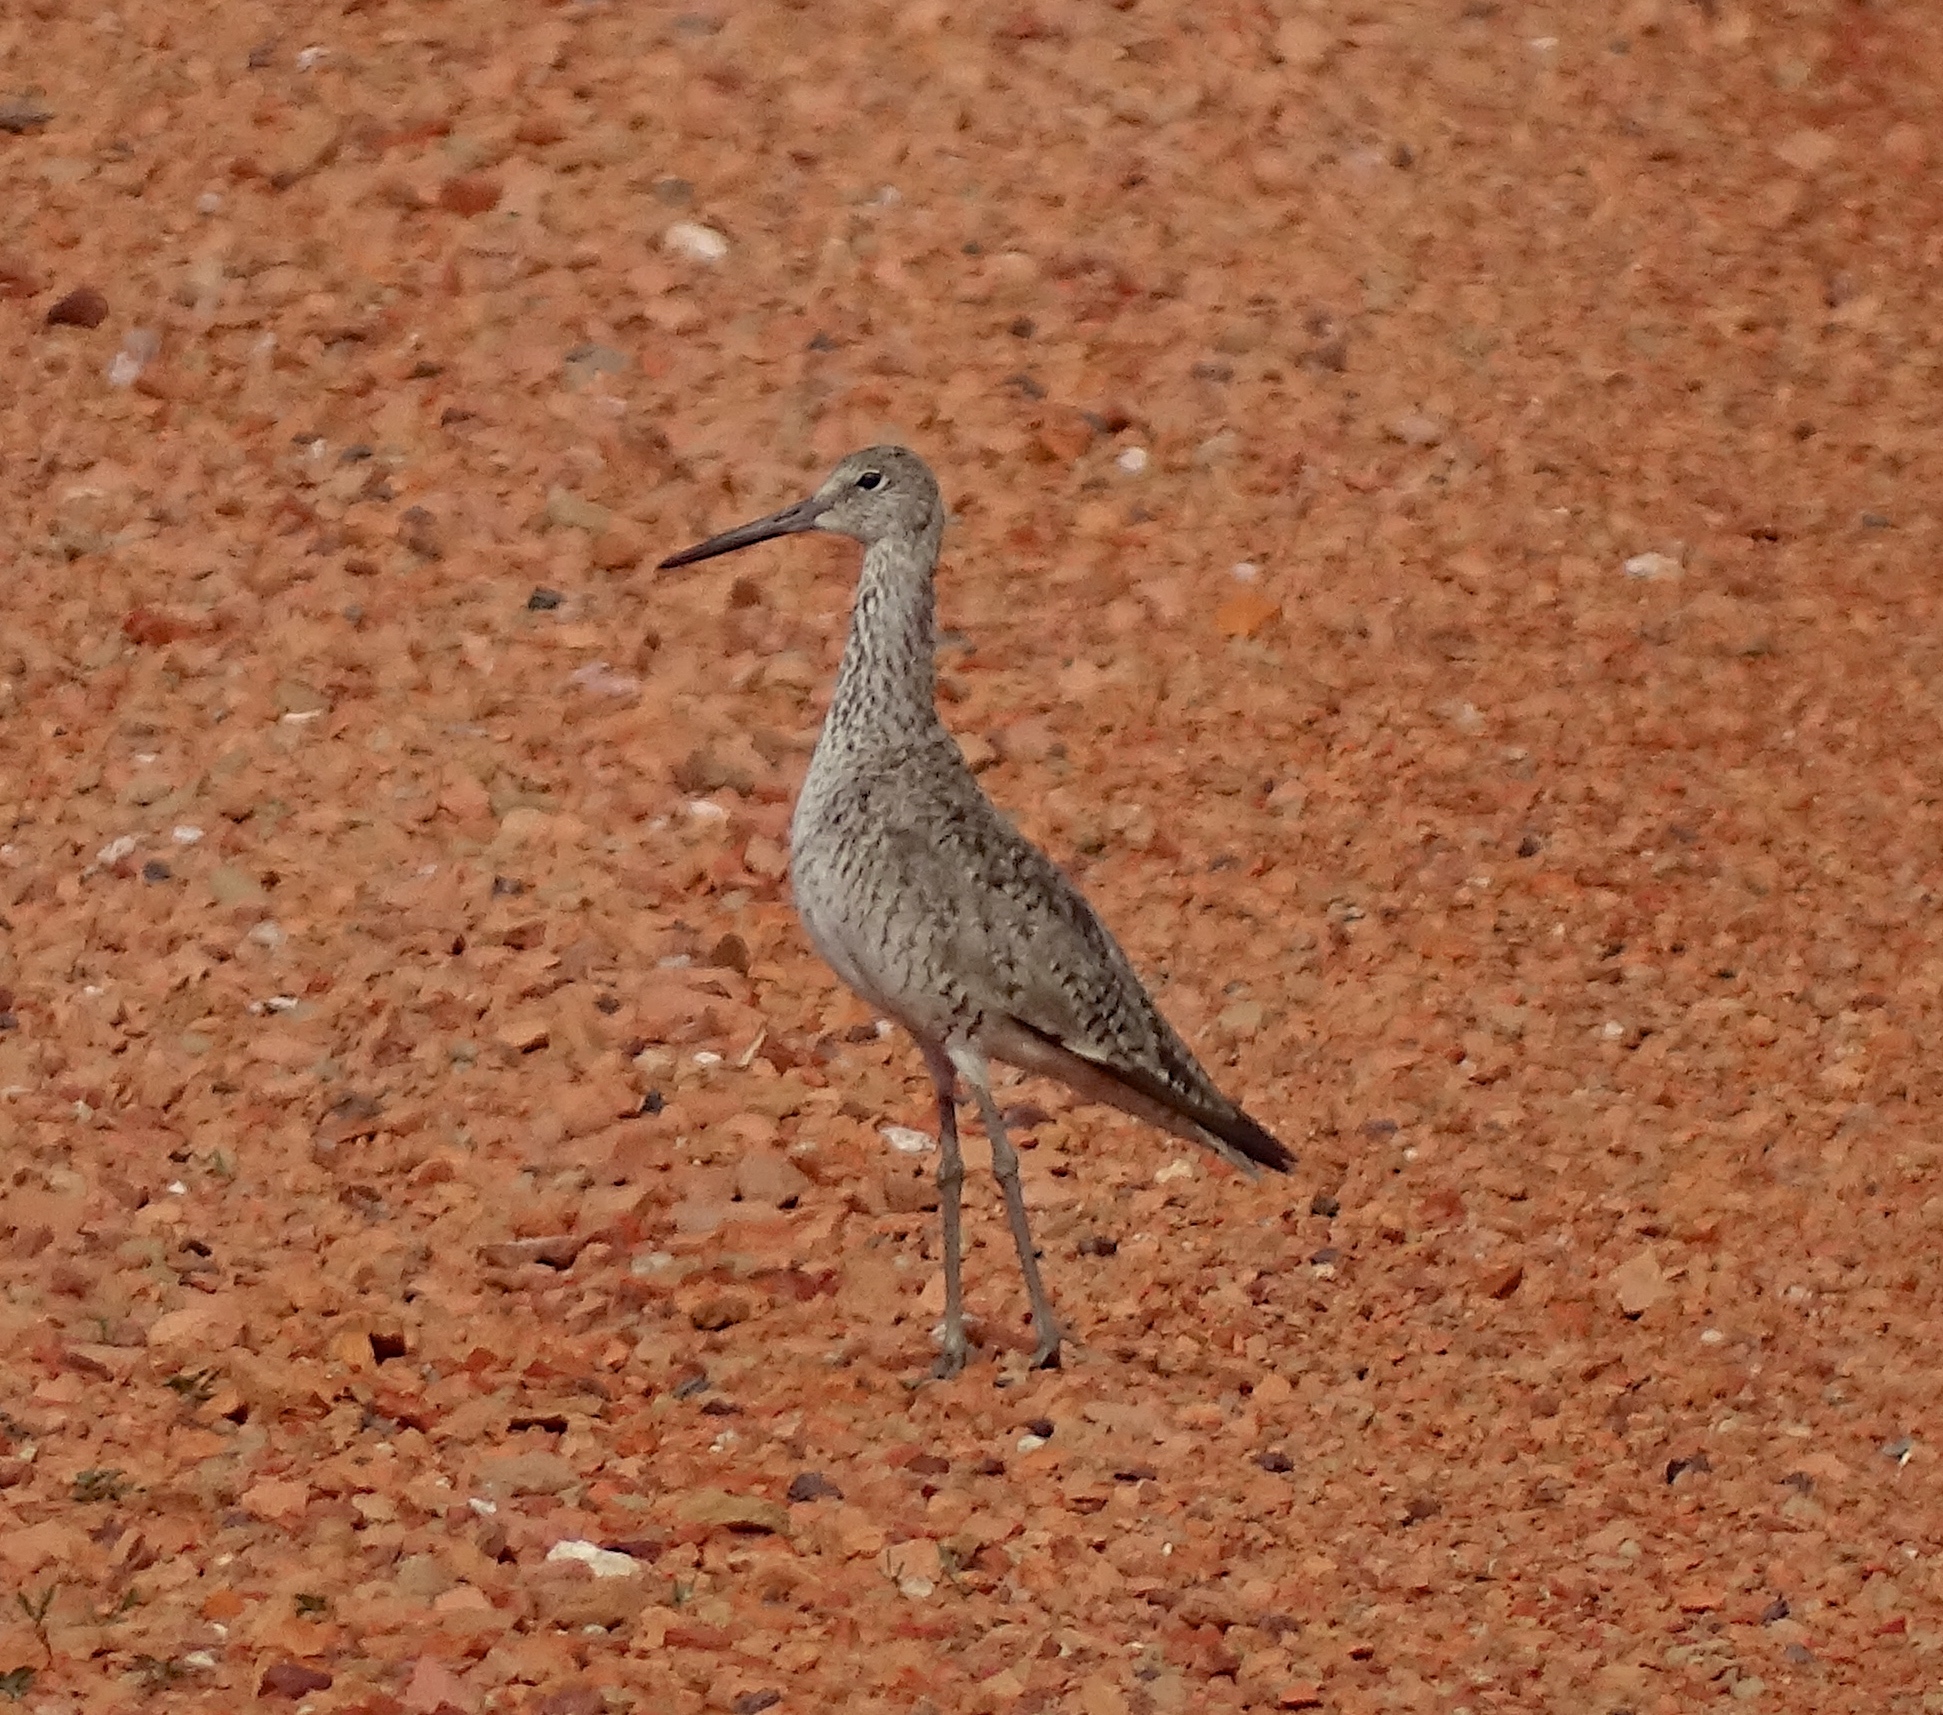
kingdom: Animalia
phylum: Chordata
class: Aves
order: Charadriiformes
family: Scolopacidae
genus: Tringa
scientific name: Tringa semipalmata
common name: Willet
